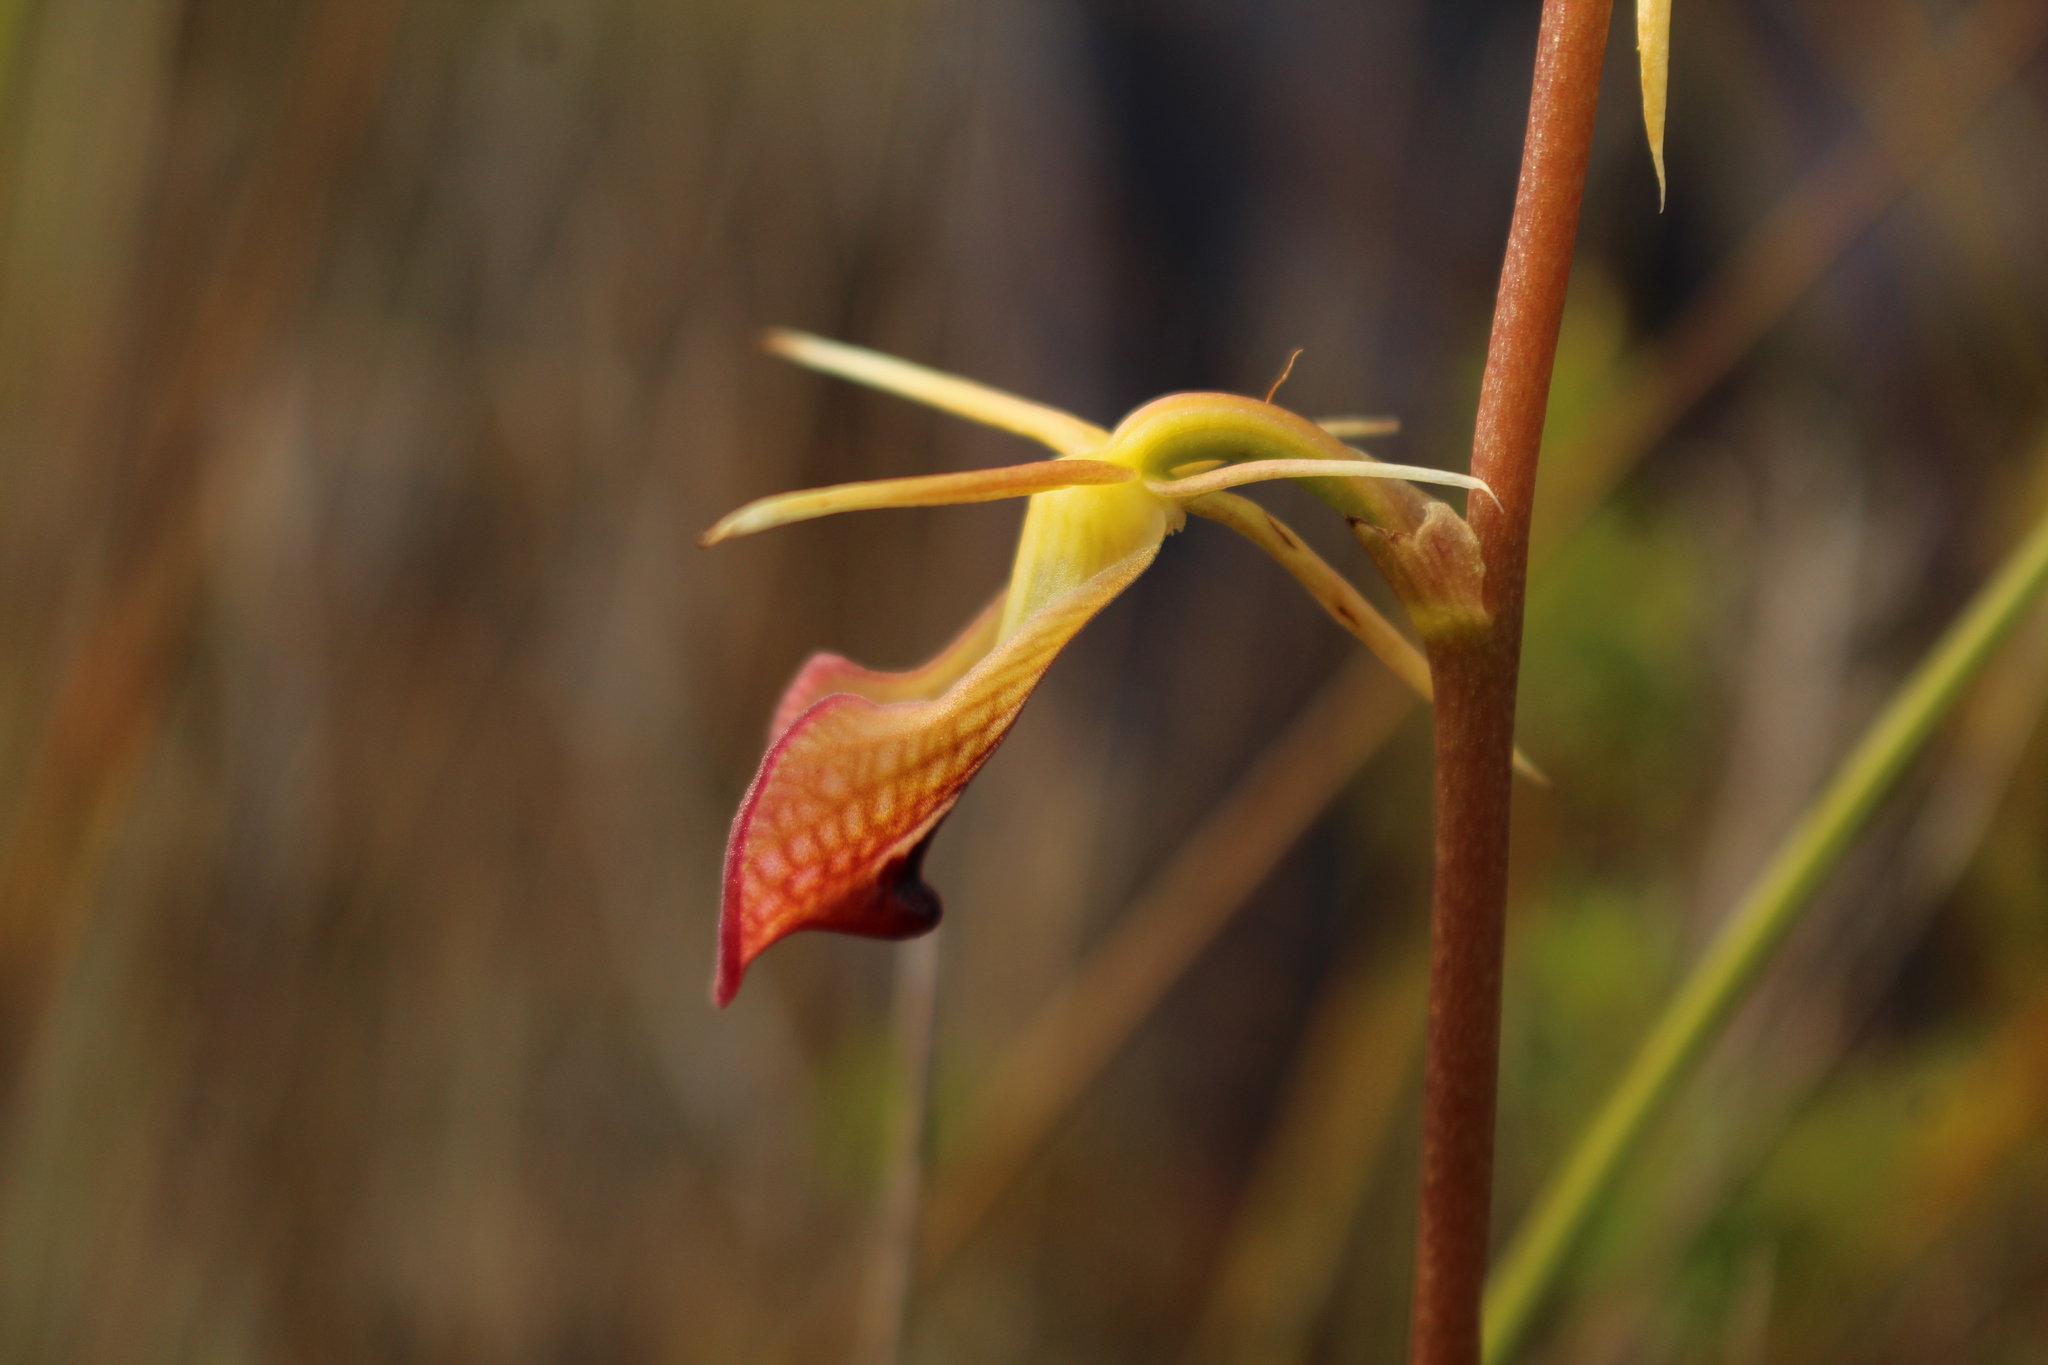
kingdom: Plantae
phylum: Tracheophyta
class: Liliopsida
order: Asparagales
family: Orchidaceae
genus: Cryptostylis
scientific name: Cryptostylis ovata
